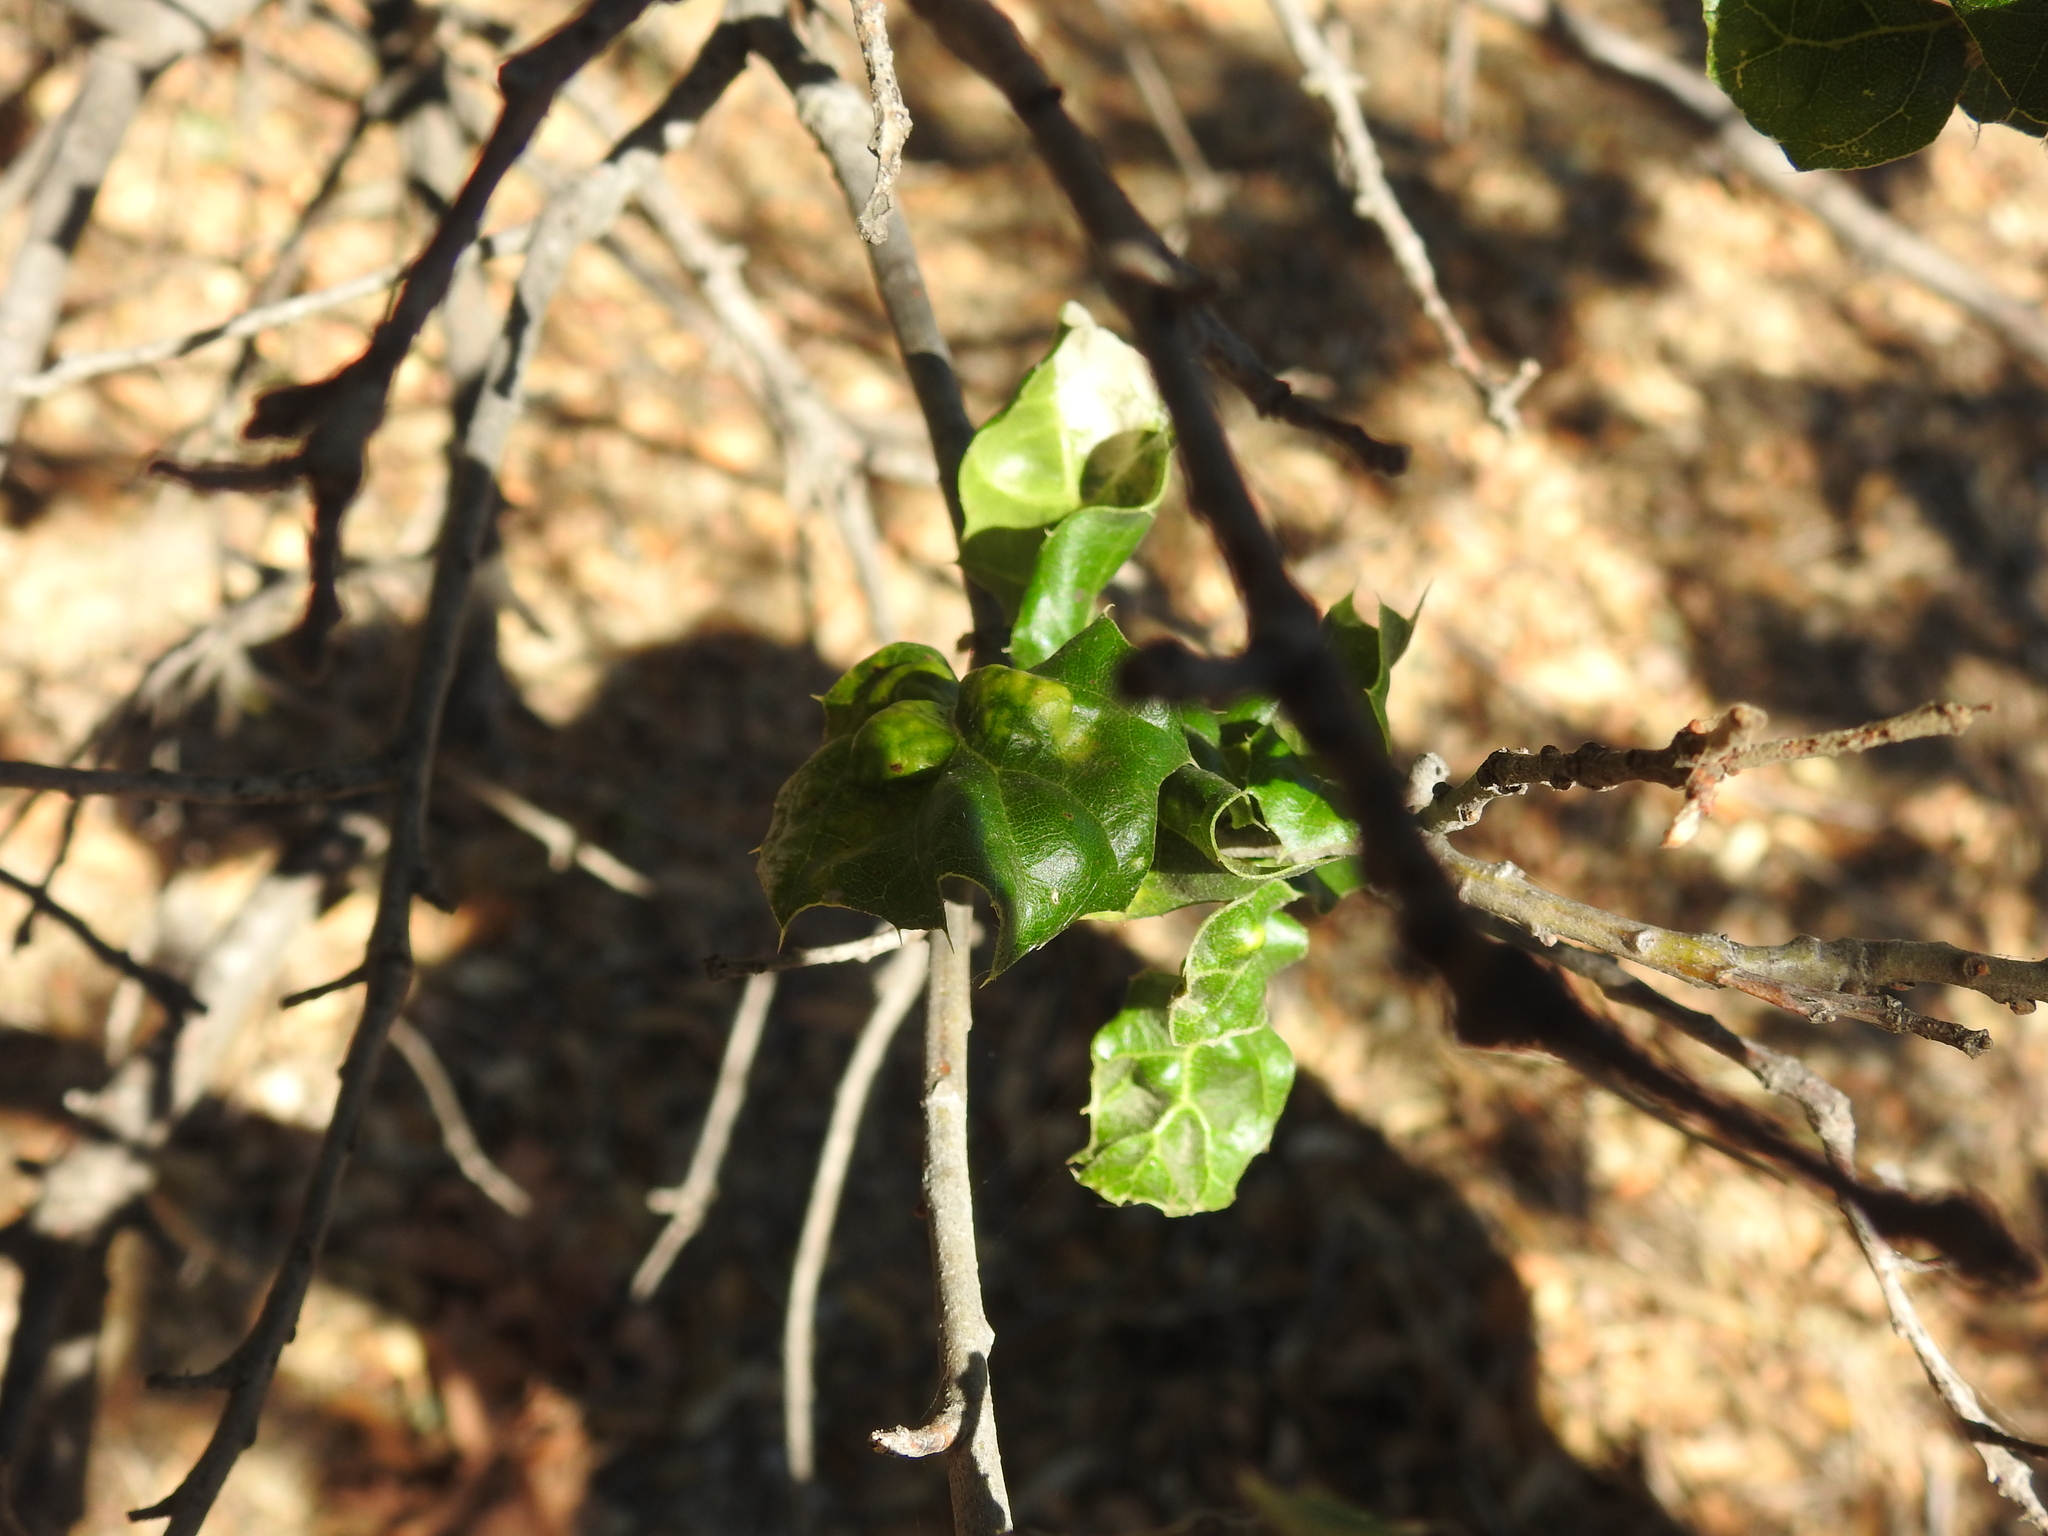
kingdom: Fungi
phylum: Ascomycota
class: Taphrinomycetes
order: Taphrinales
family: Taphrinaceae
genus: Taphrina
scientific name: Taphrina caerulescens
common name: Oak leaf blister
